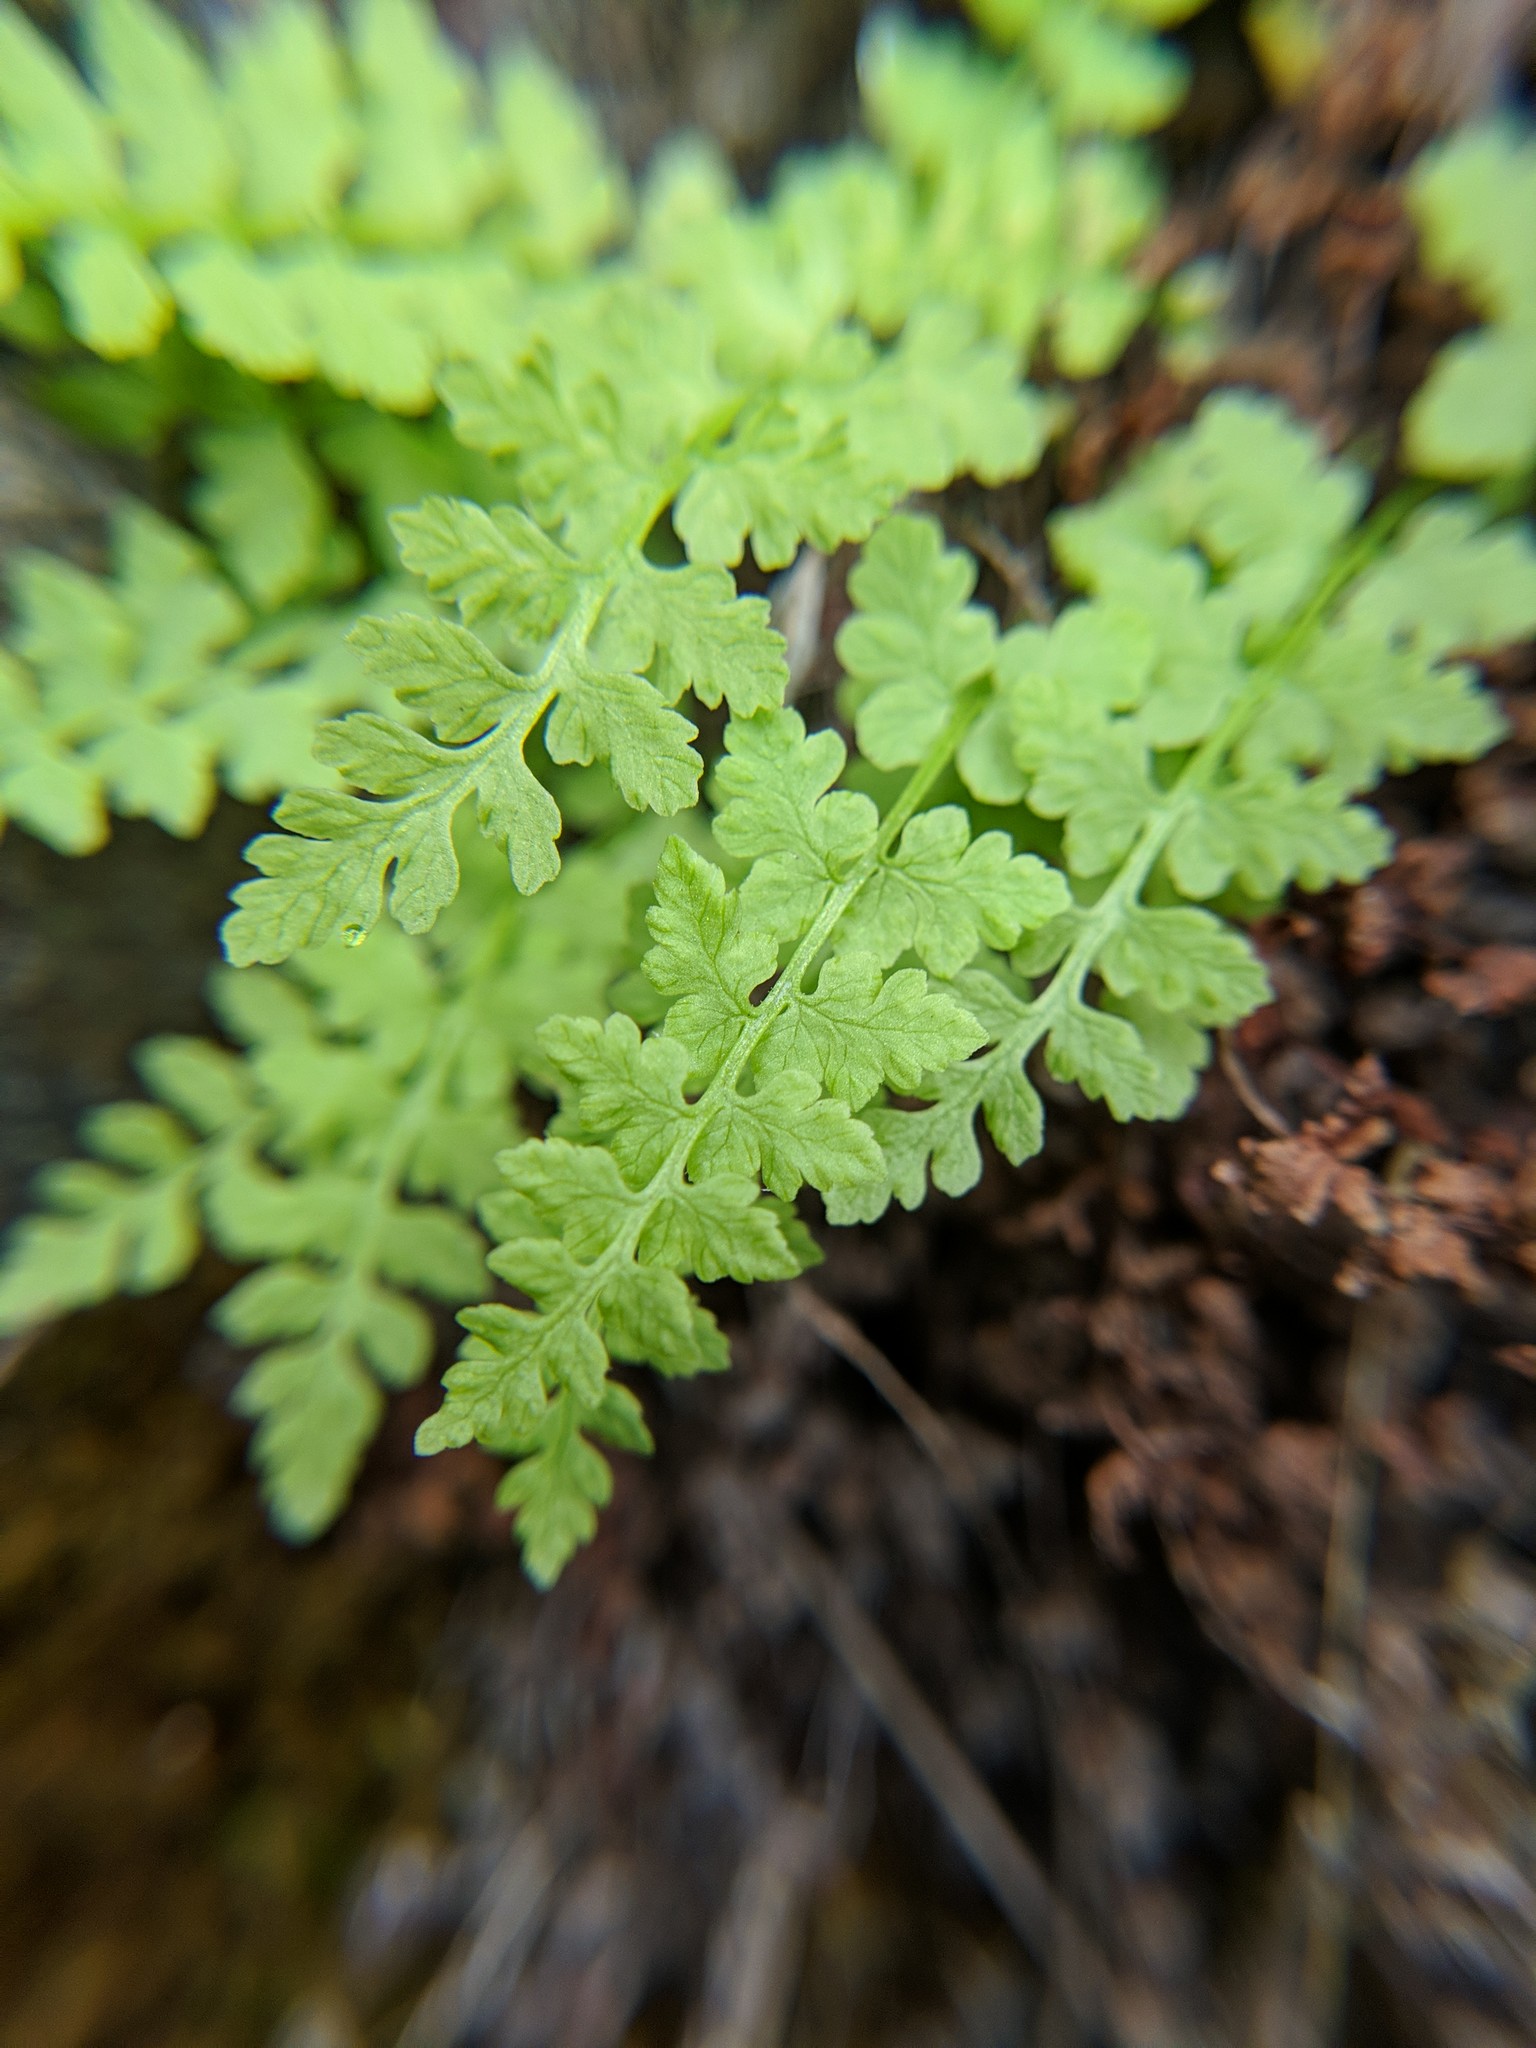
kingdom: Plantae
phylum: Tracheophyta
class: Polypodiopsida
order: Polypodiales
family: Cystopteridaceae
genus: Cystopteris
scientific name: Cystopteris fragilis
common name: Brittle bladder fern
